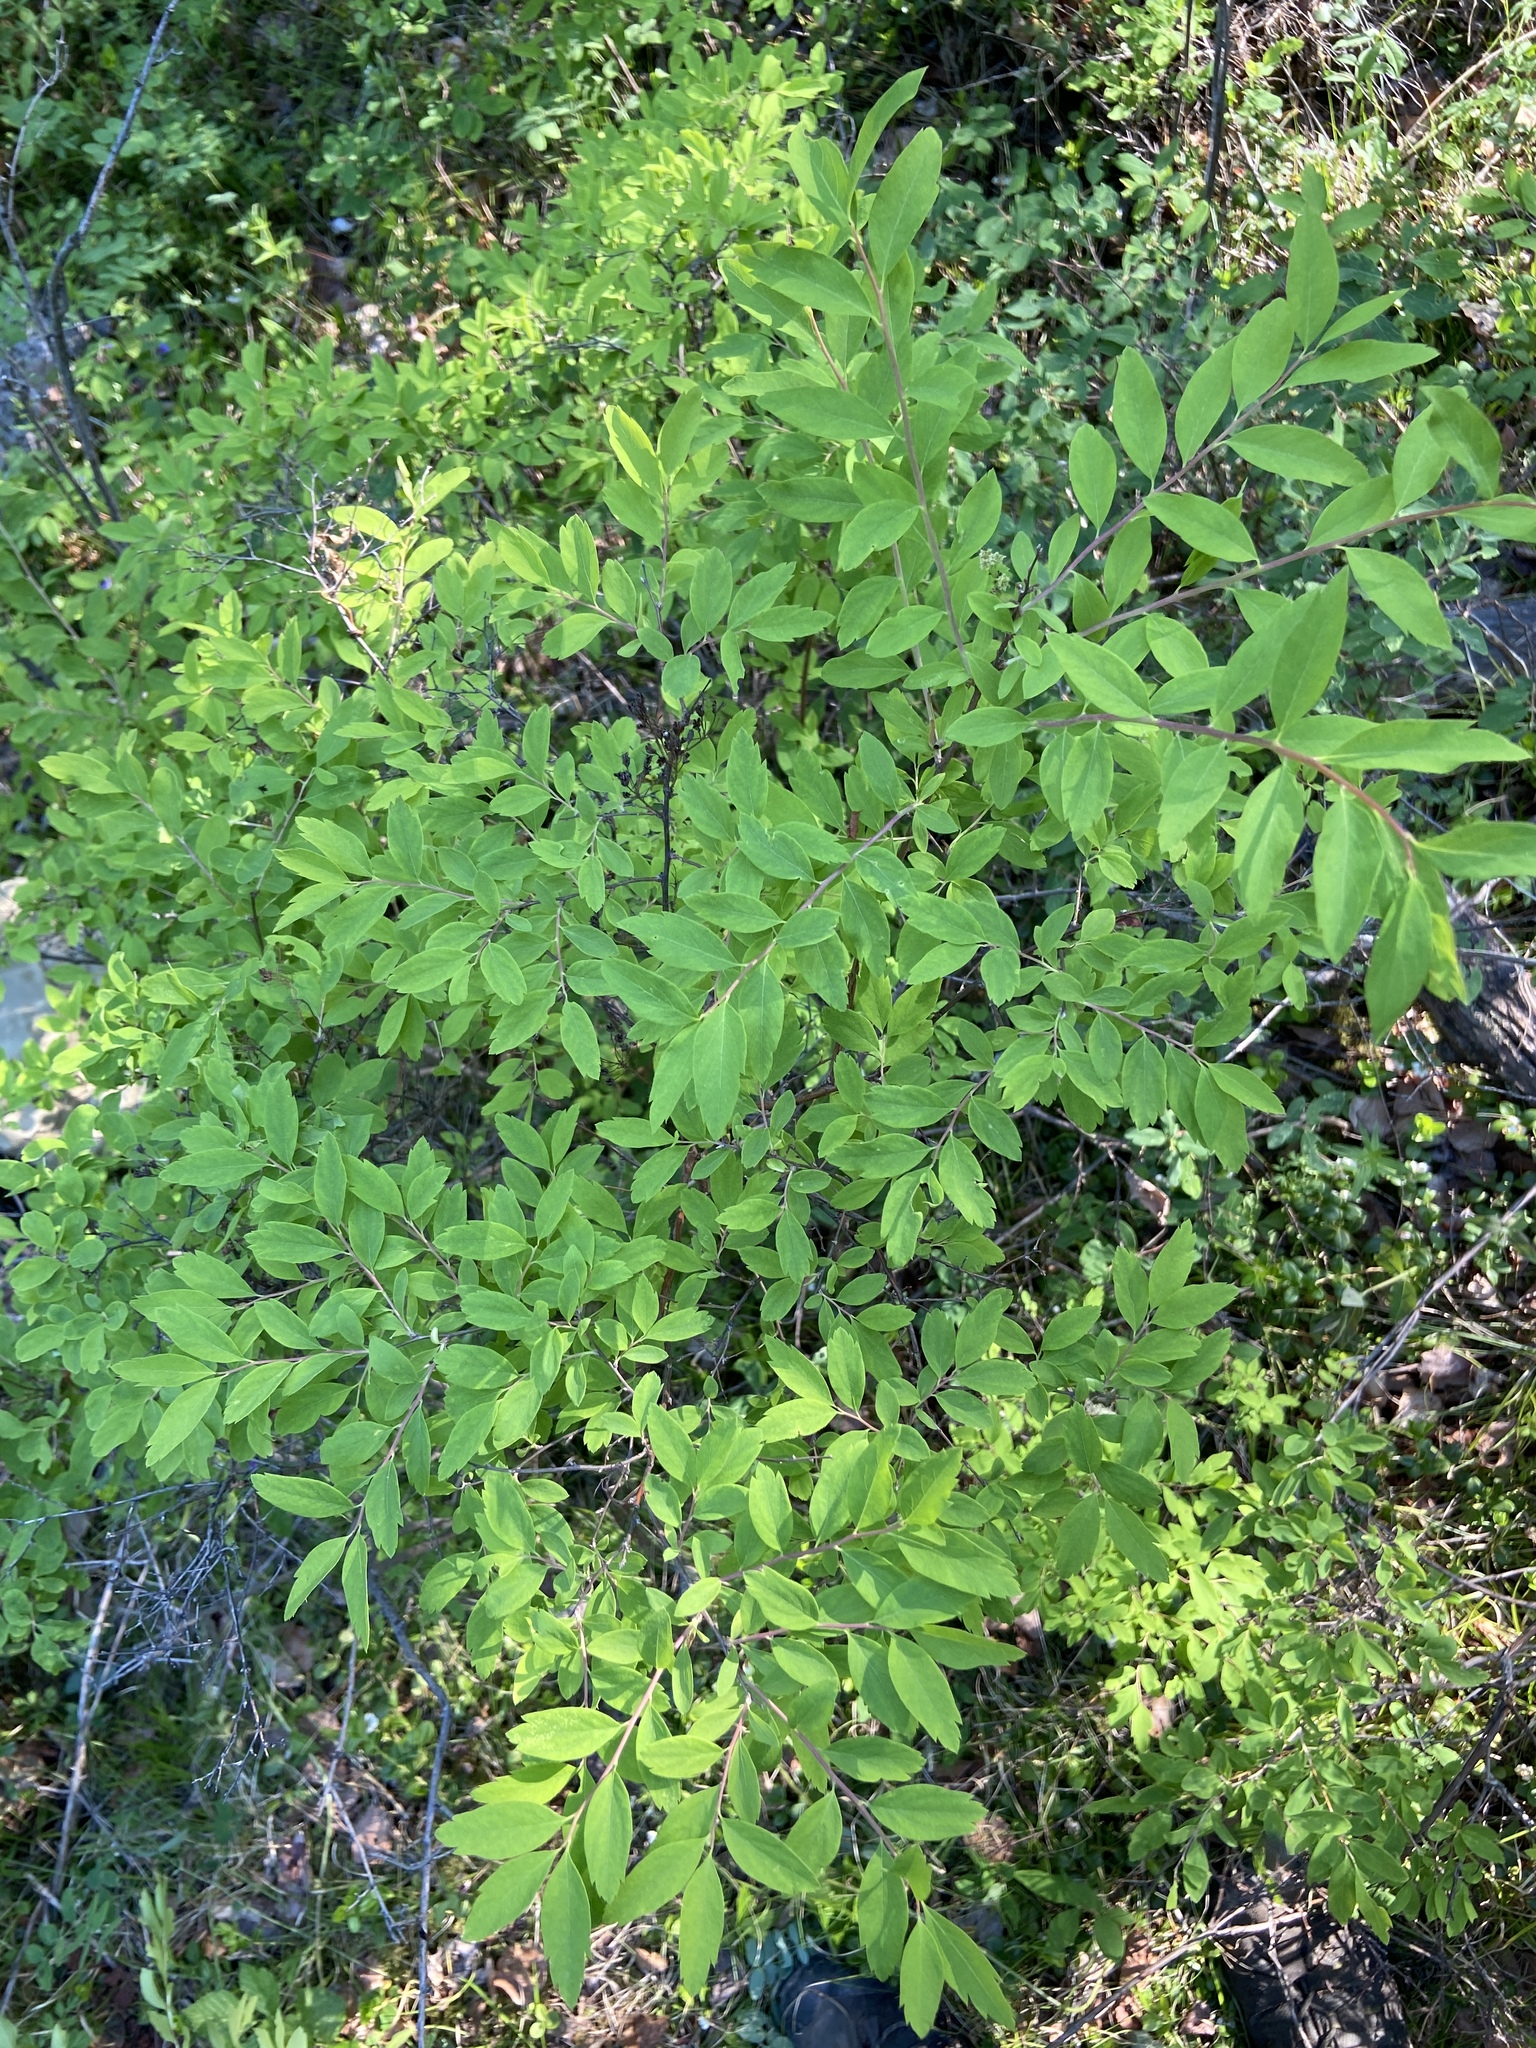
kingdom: Plantae
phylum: Tracheophyta
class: Magnoliopsida
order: Rosales
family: Rosaceae
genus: Spiraea
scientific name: Spiraea media
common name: Russian spiraea
